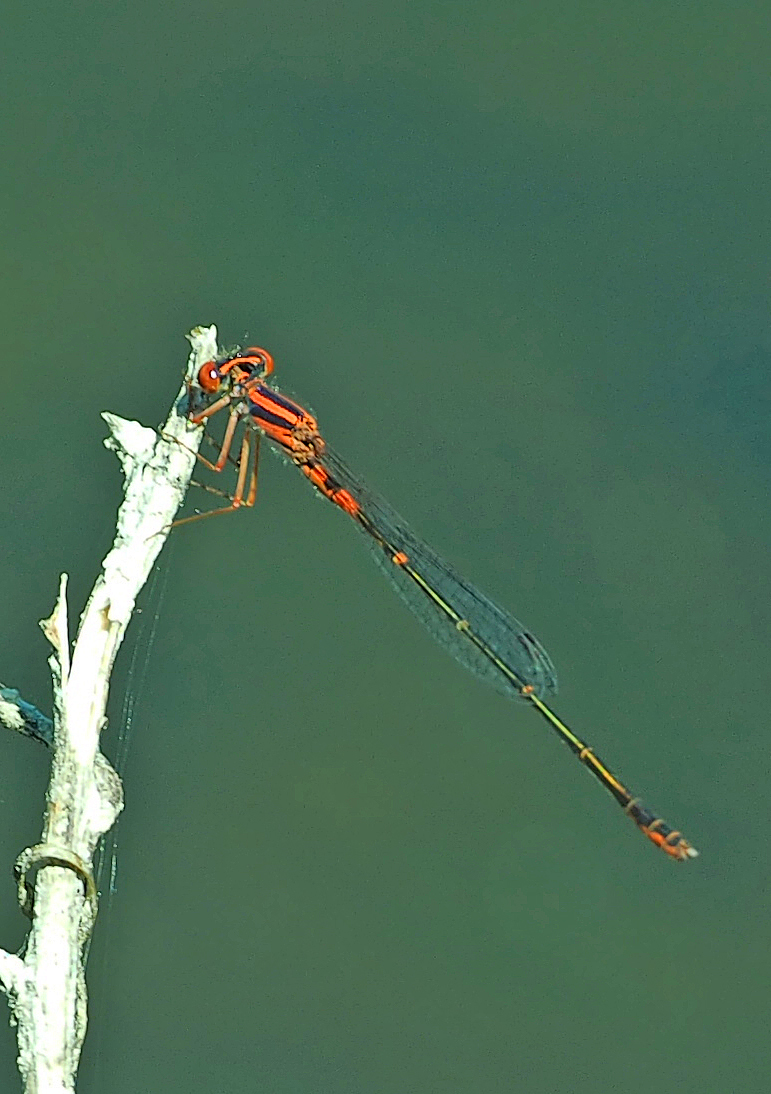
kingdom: Animalia
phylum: Arthropoda
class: Insecta
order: Odonata
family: Coenagrionidae
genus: Enallagma
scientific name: Enallagma concisum
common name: Cherry bluet
